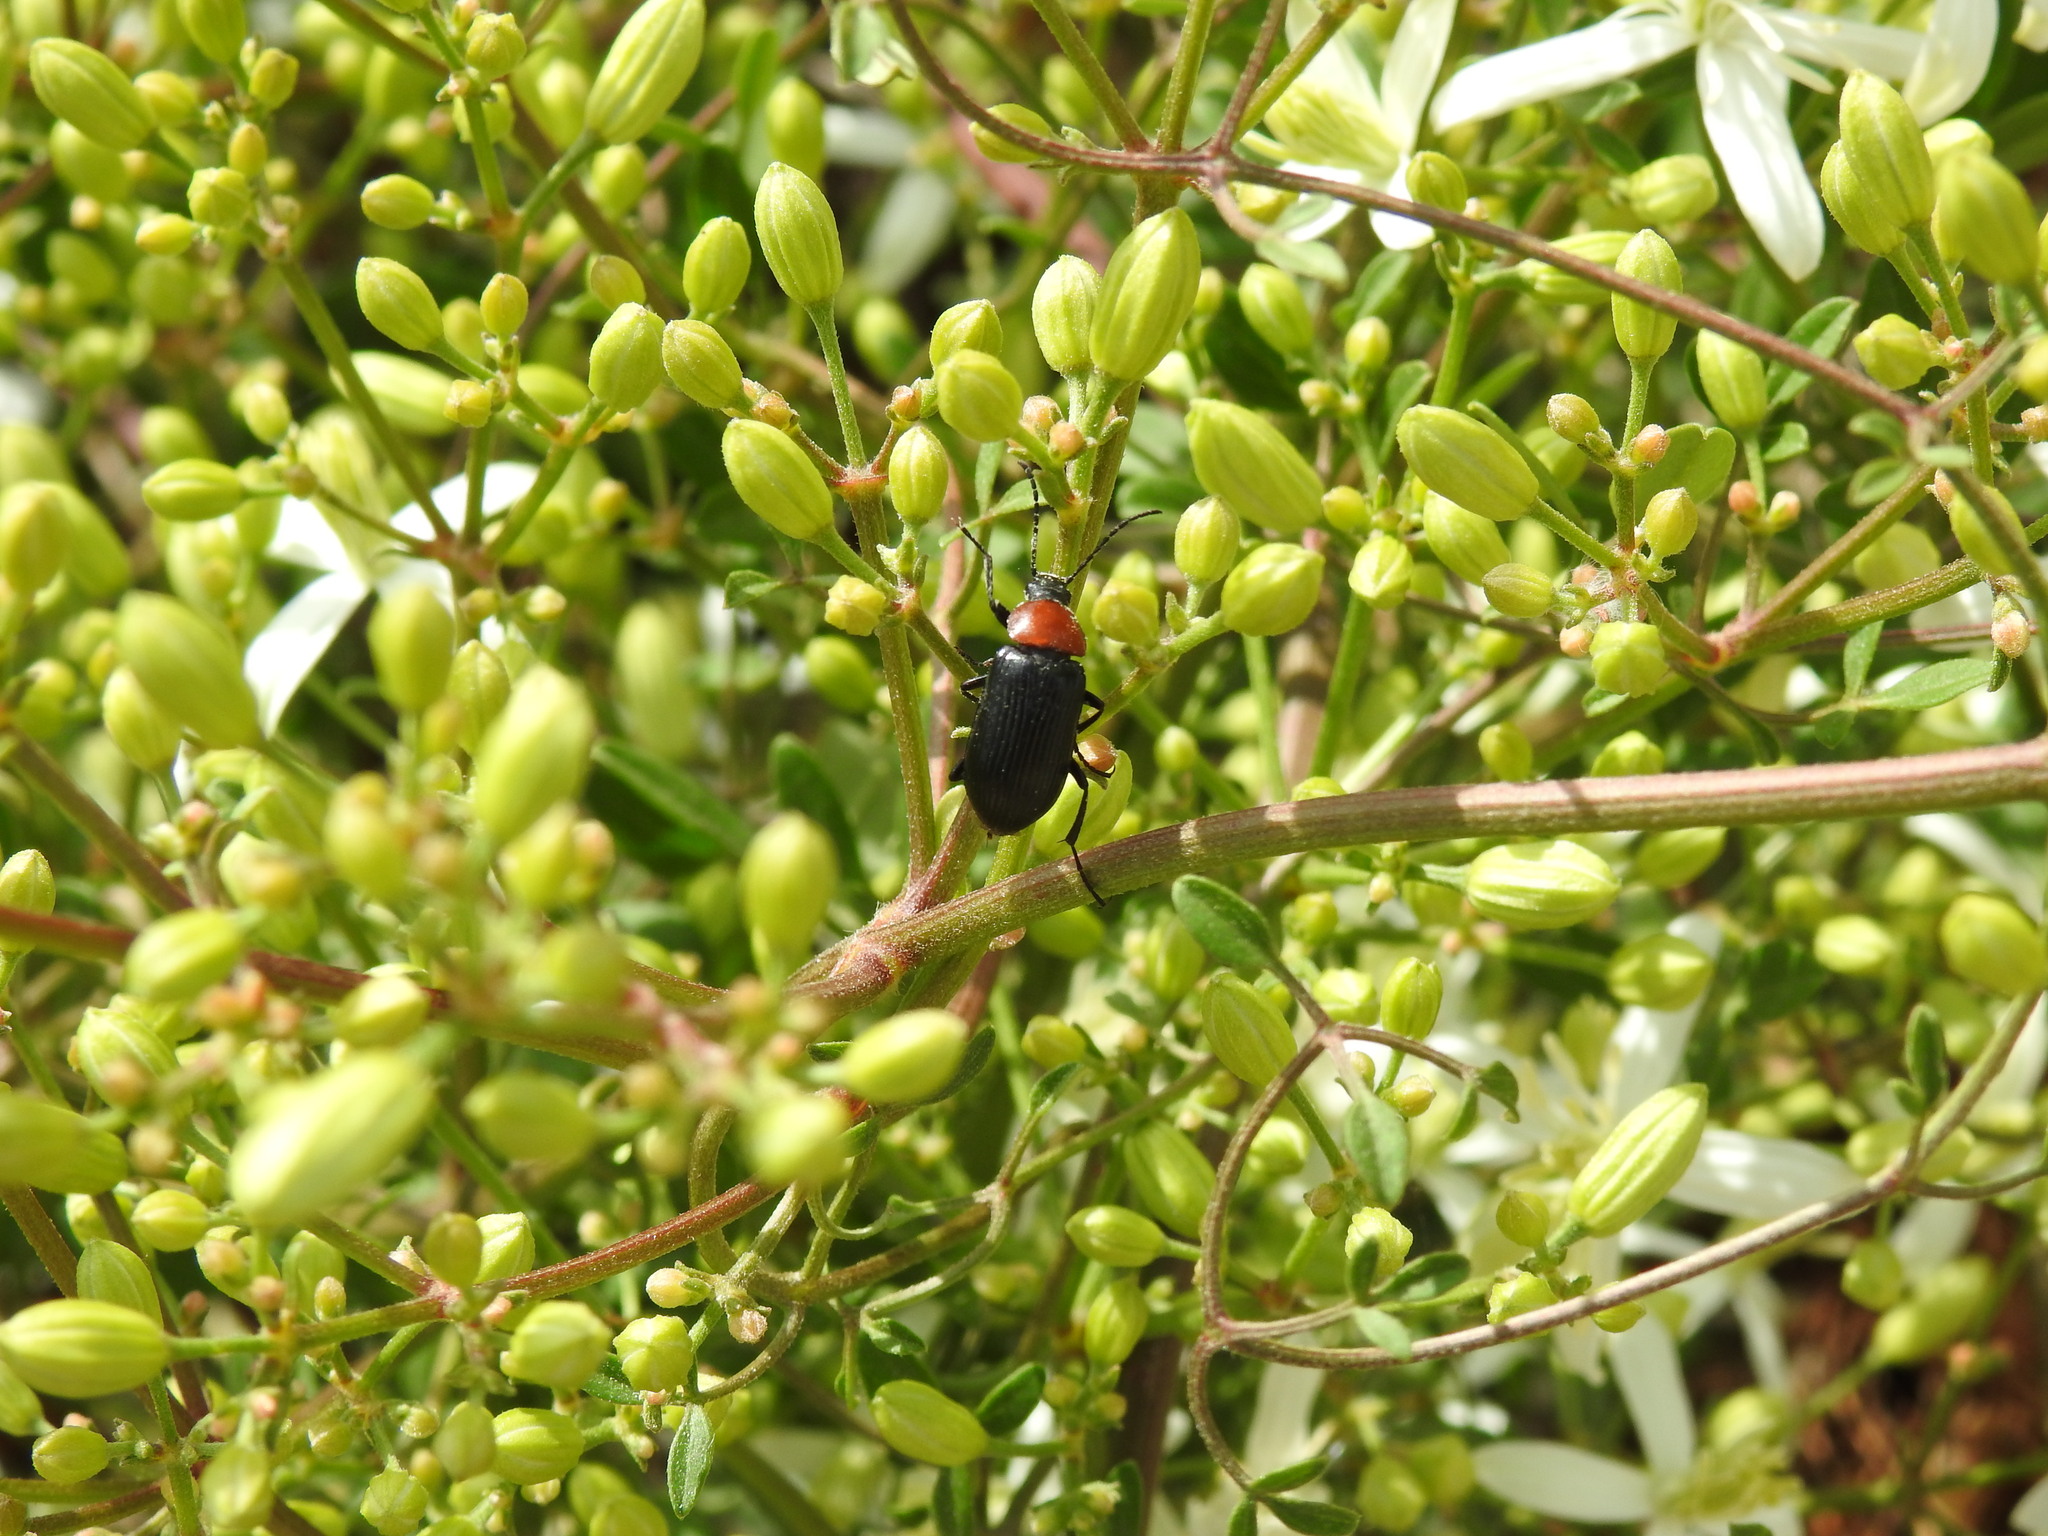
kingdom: Animalia
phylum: Arthropoda
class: Insecta
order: Coleoptera
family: Tenebrionidae
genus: Heliotaurus
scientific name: Heliotaurus ruficollis
